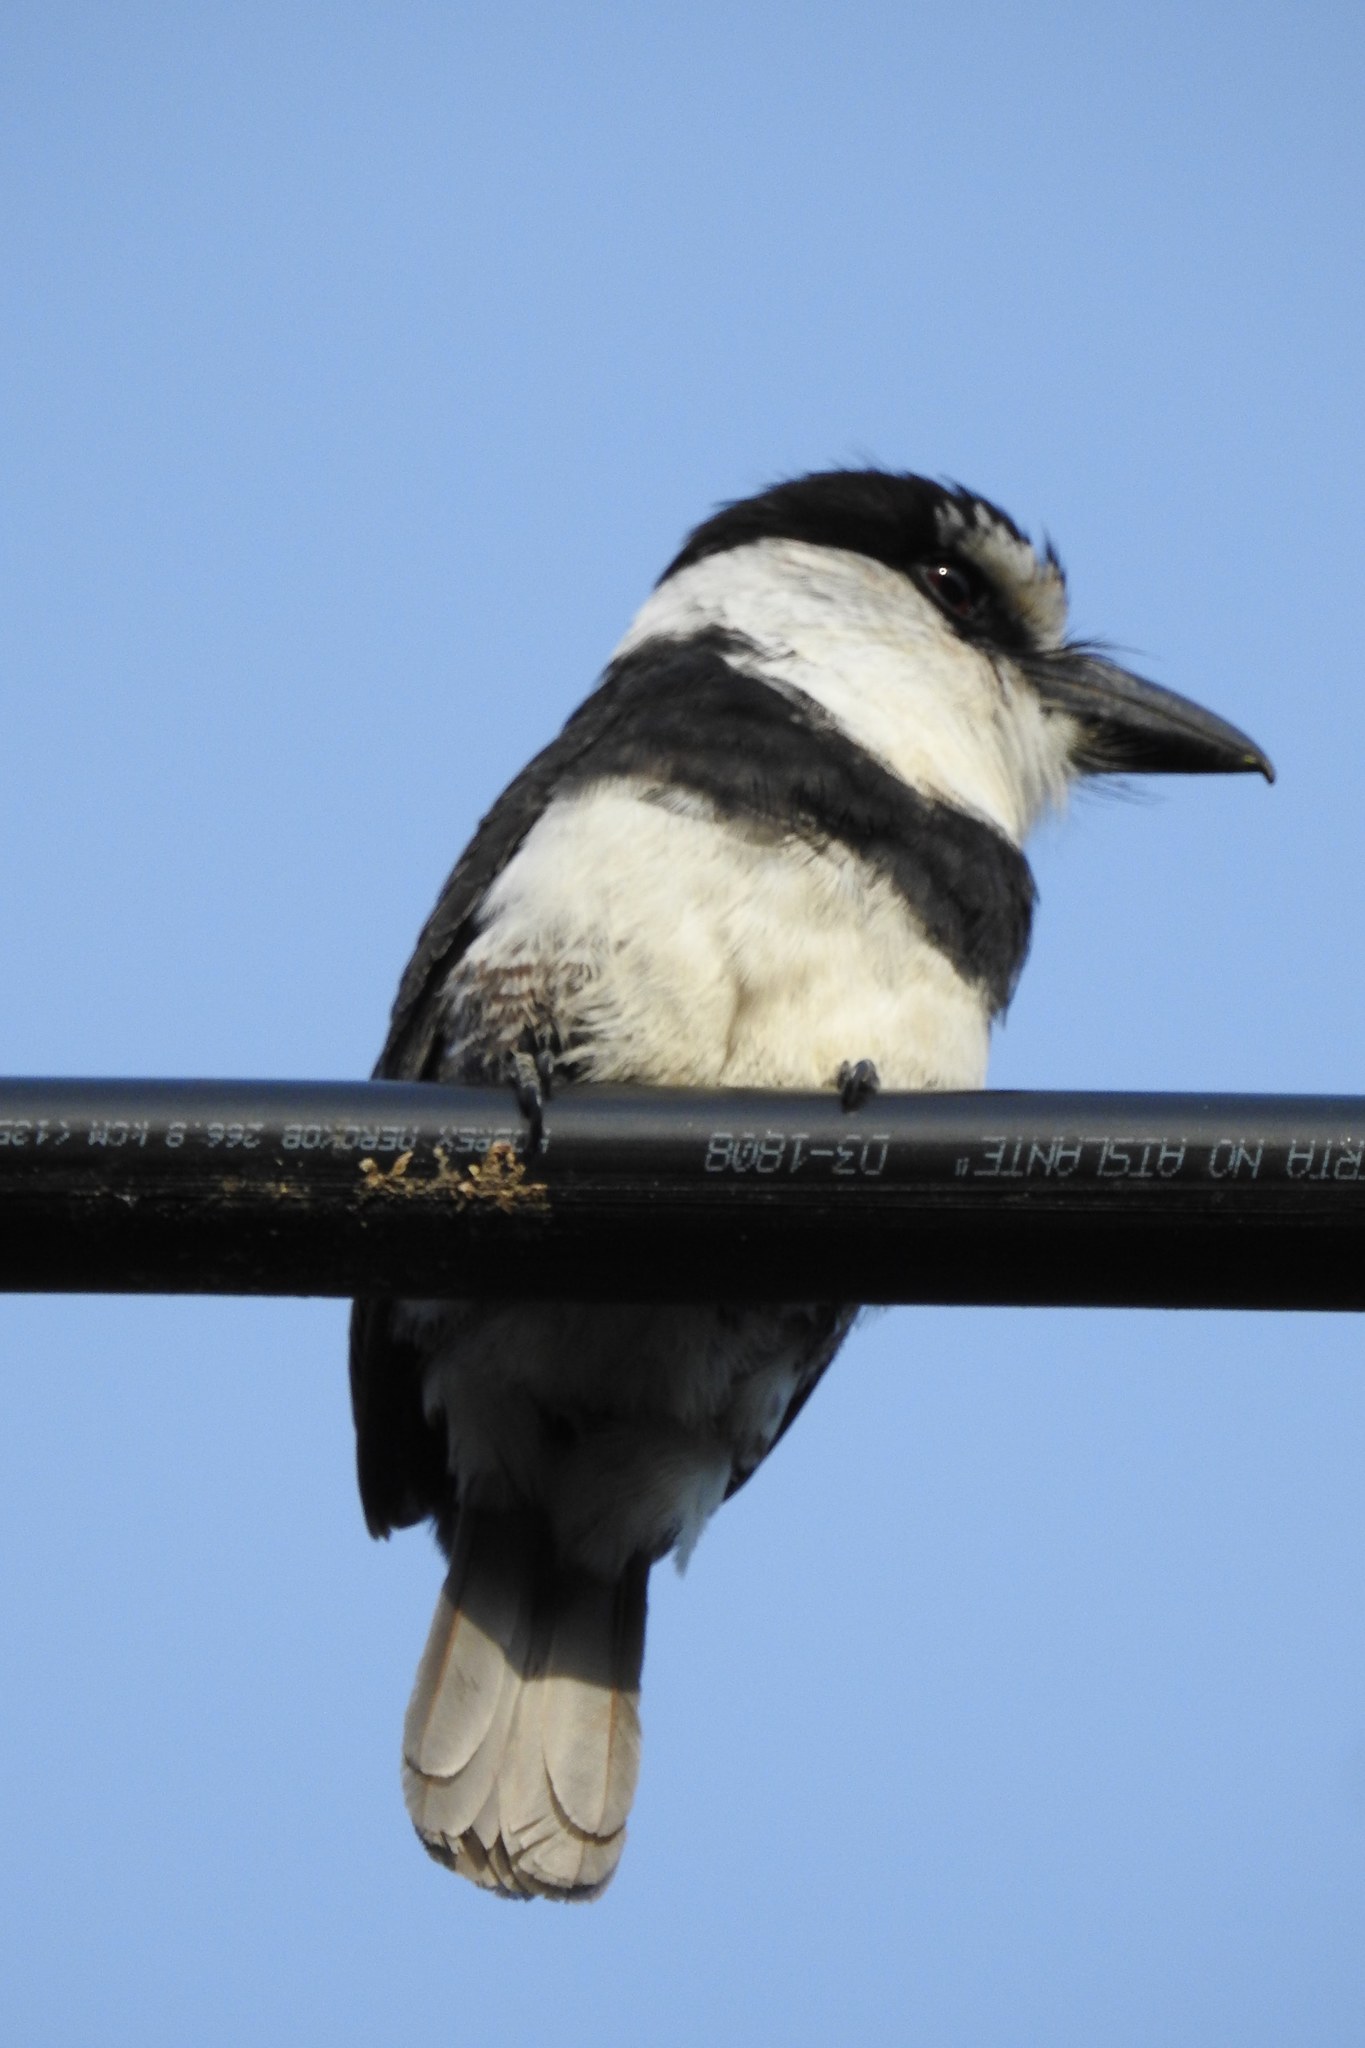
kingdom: Animalia
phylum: Chordata
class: Aves
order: Piciformes
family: Bucconidae
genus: Notharchus
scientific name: Notharchus hyperrhynchus
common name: White-necked puffbird
